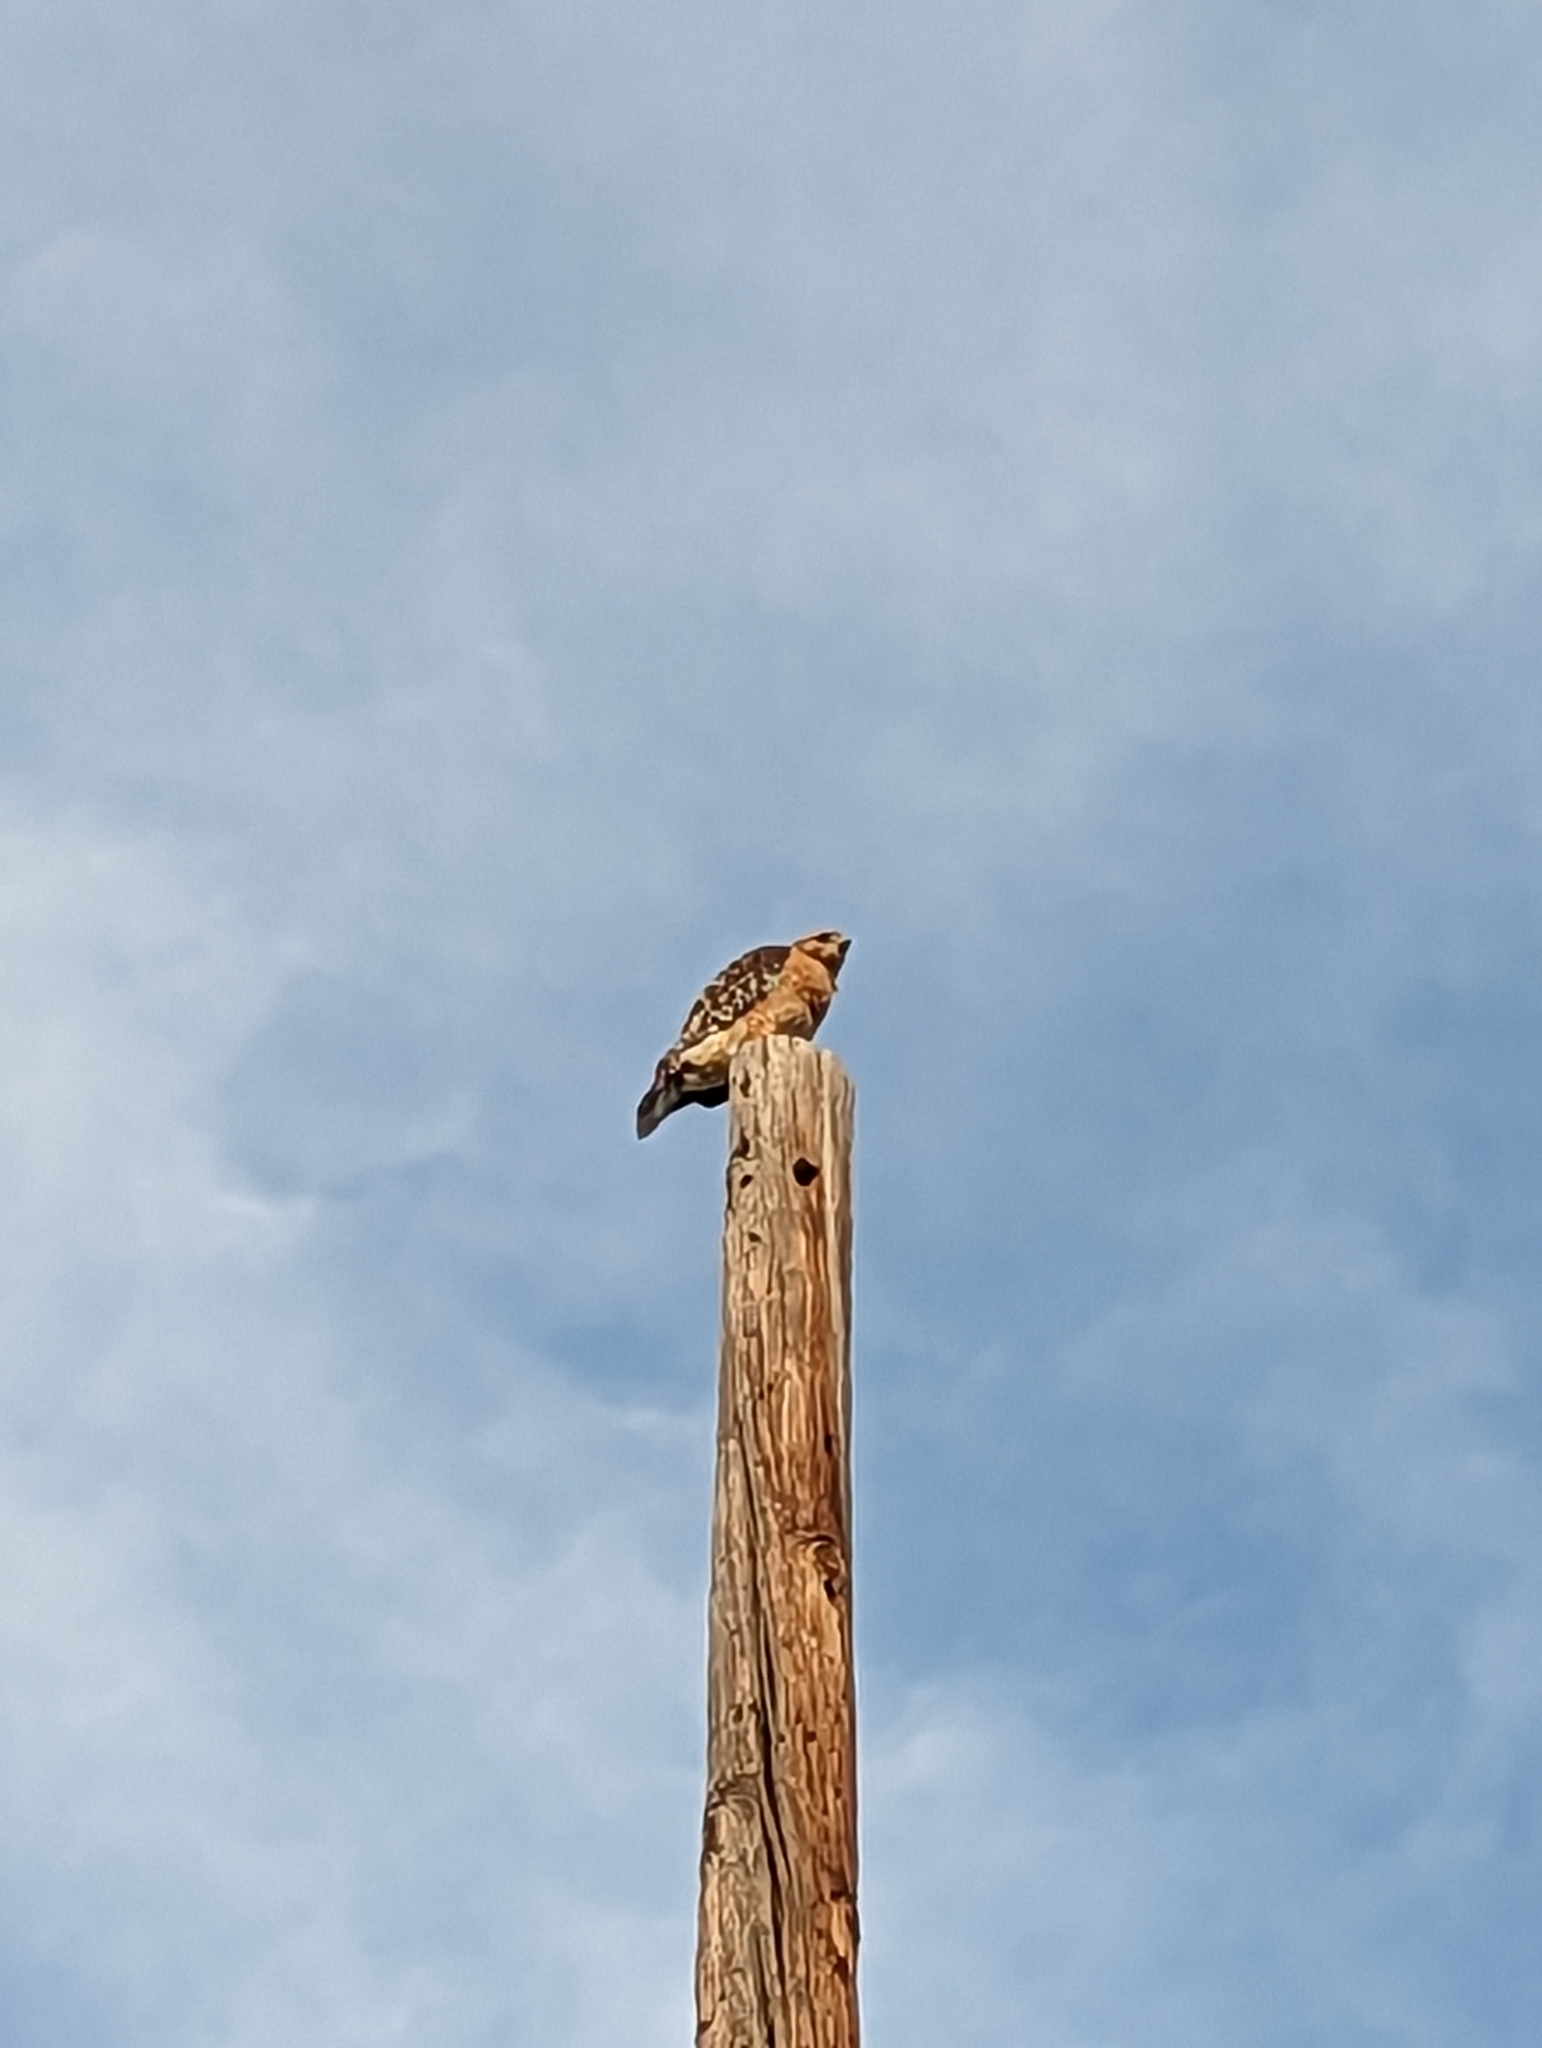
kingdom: Animalia
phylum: Chordata
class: Aves
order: Accipitriformes
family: Accipitridae
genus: Buteo
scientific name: Buteo lineatus
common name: Red-shouldered hawk
